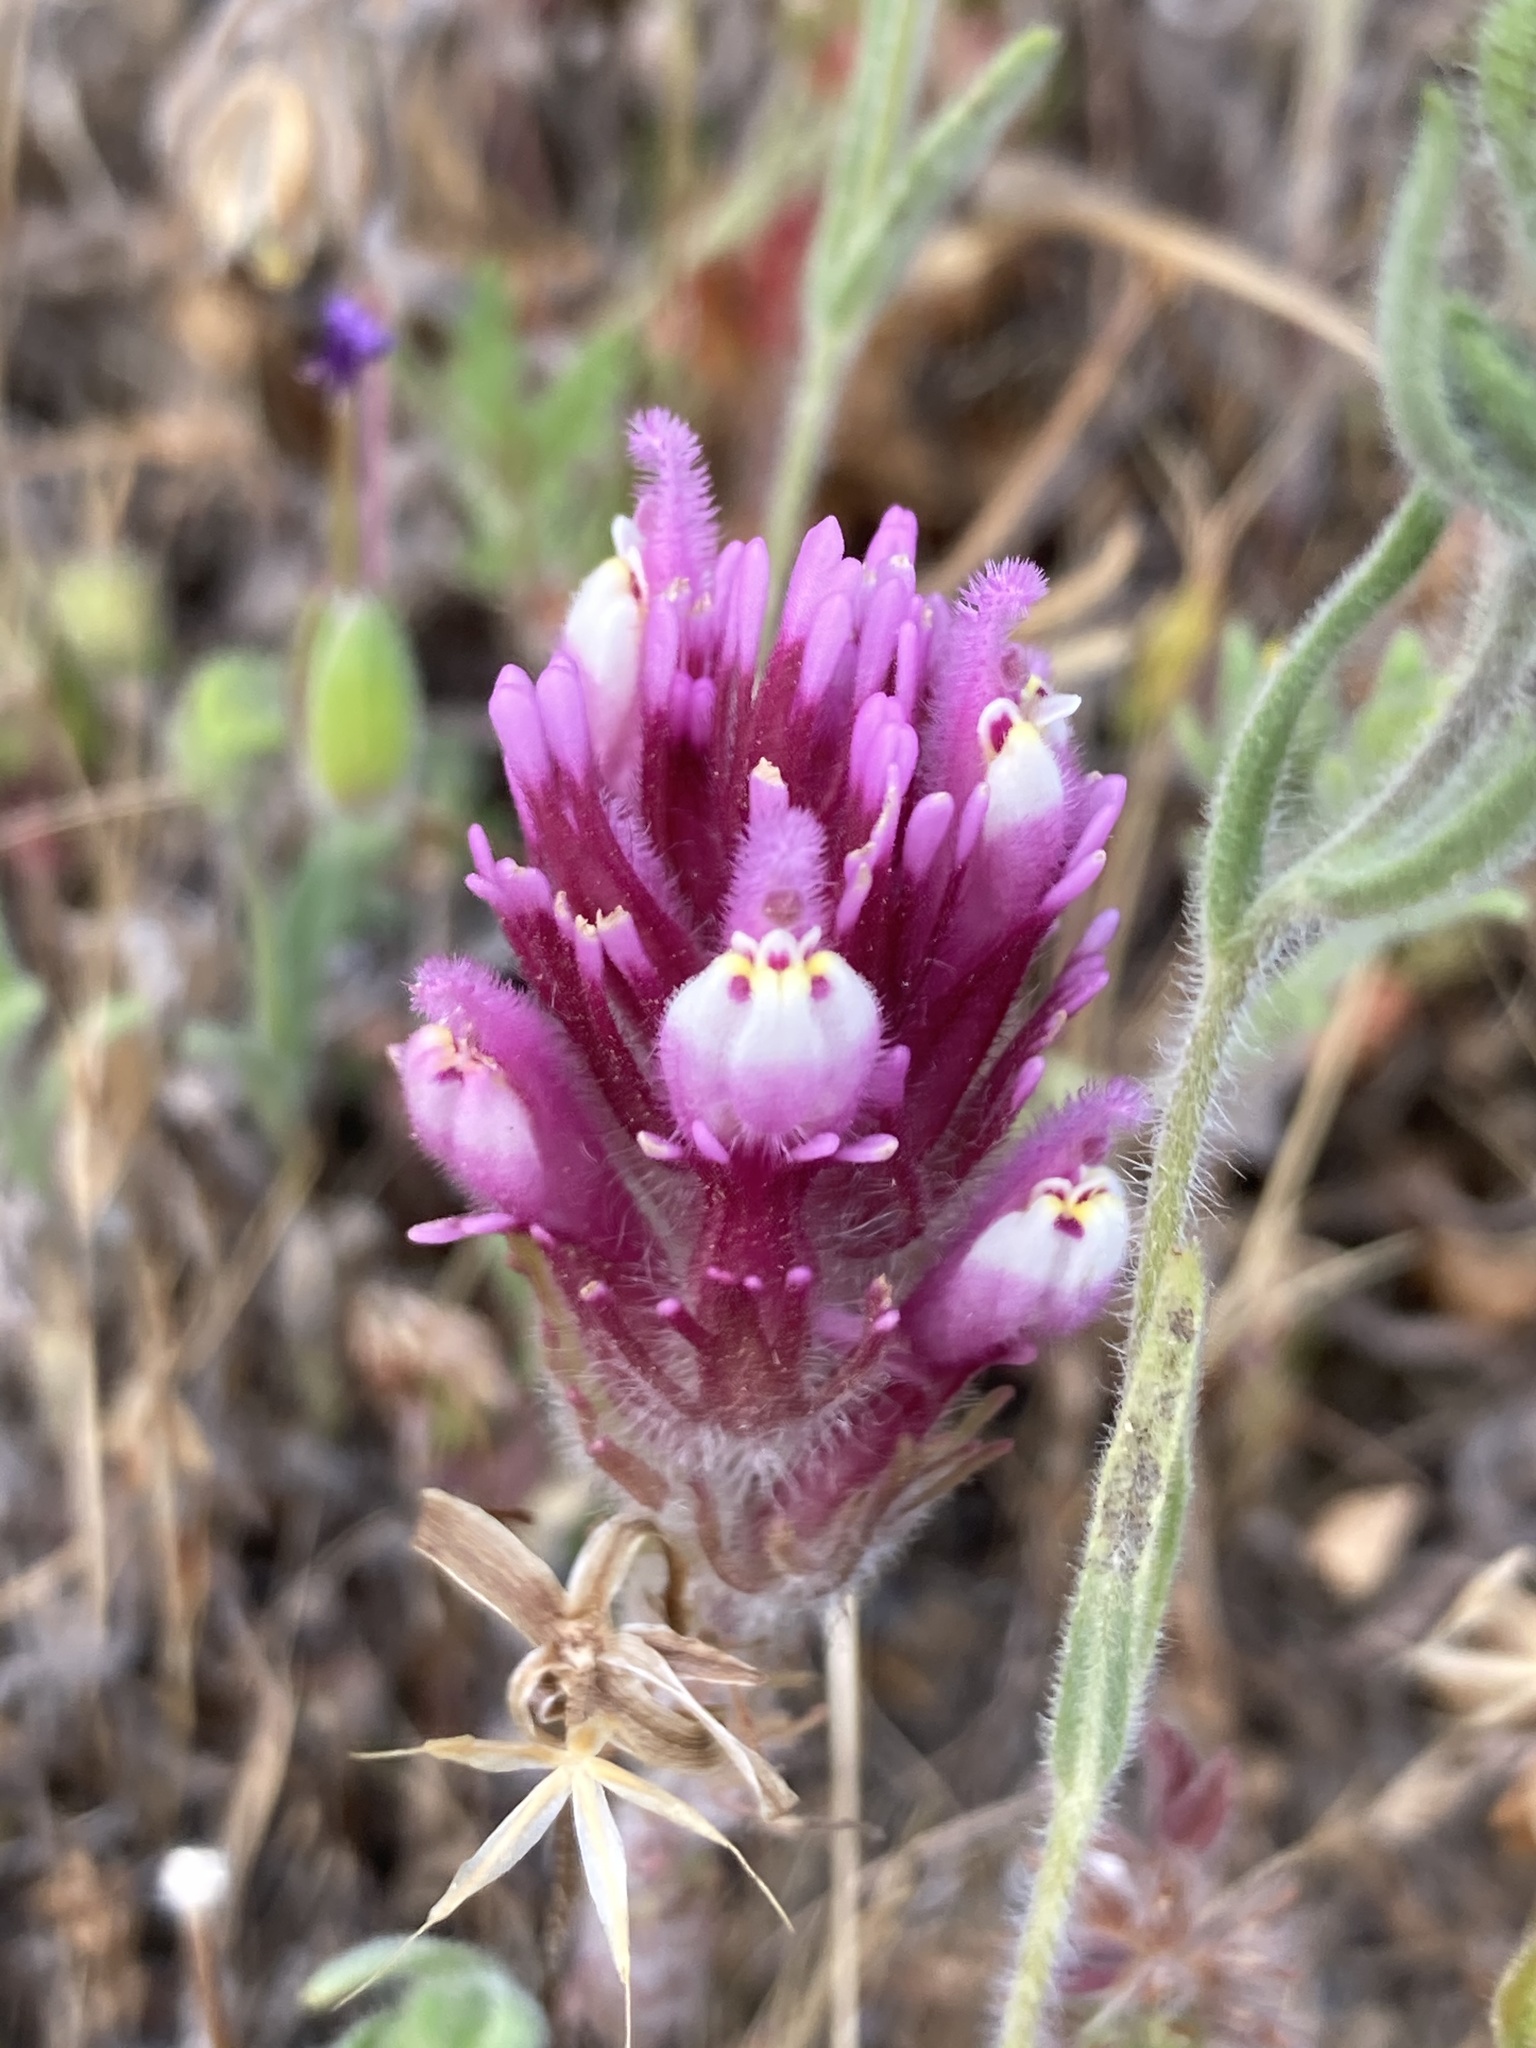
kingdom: Plantae
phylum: Tracheophyta
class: Magnoliopsida
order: Lamiales
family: Orobanchaceae
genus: Castilleja
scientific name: Castilleja exserta
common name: Purple owl-clover
